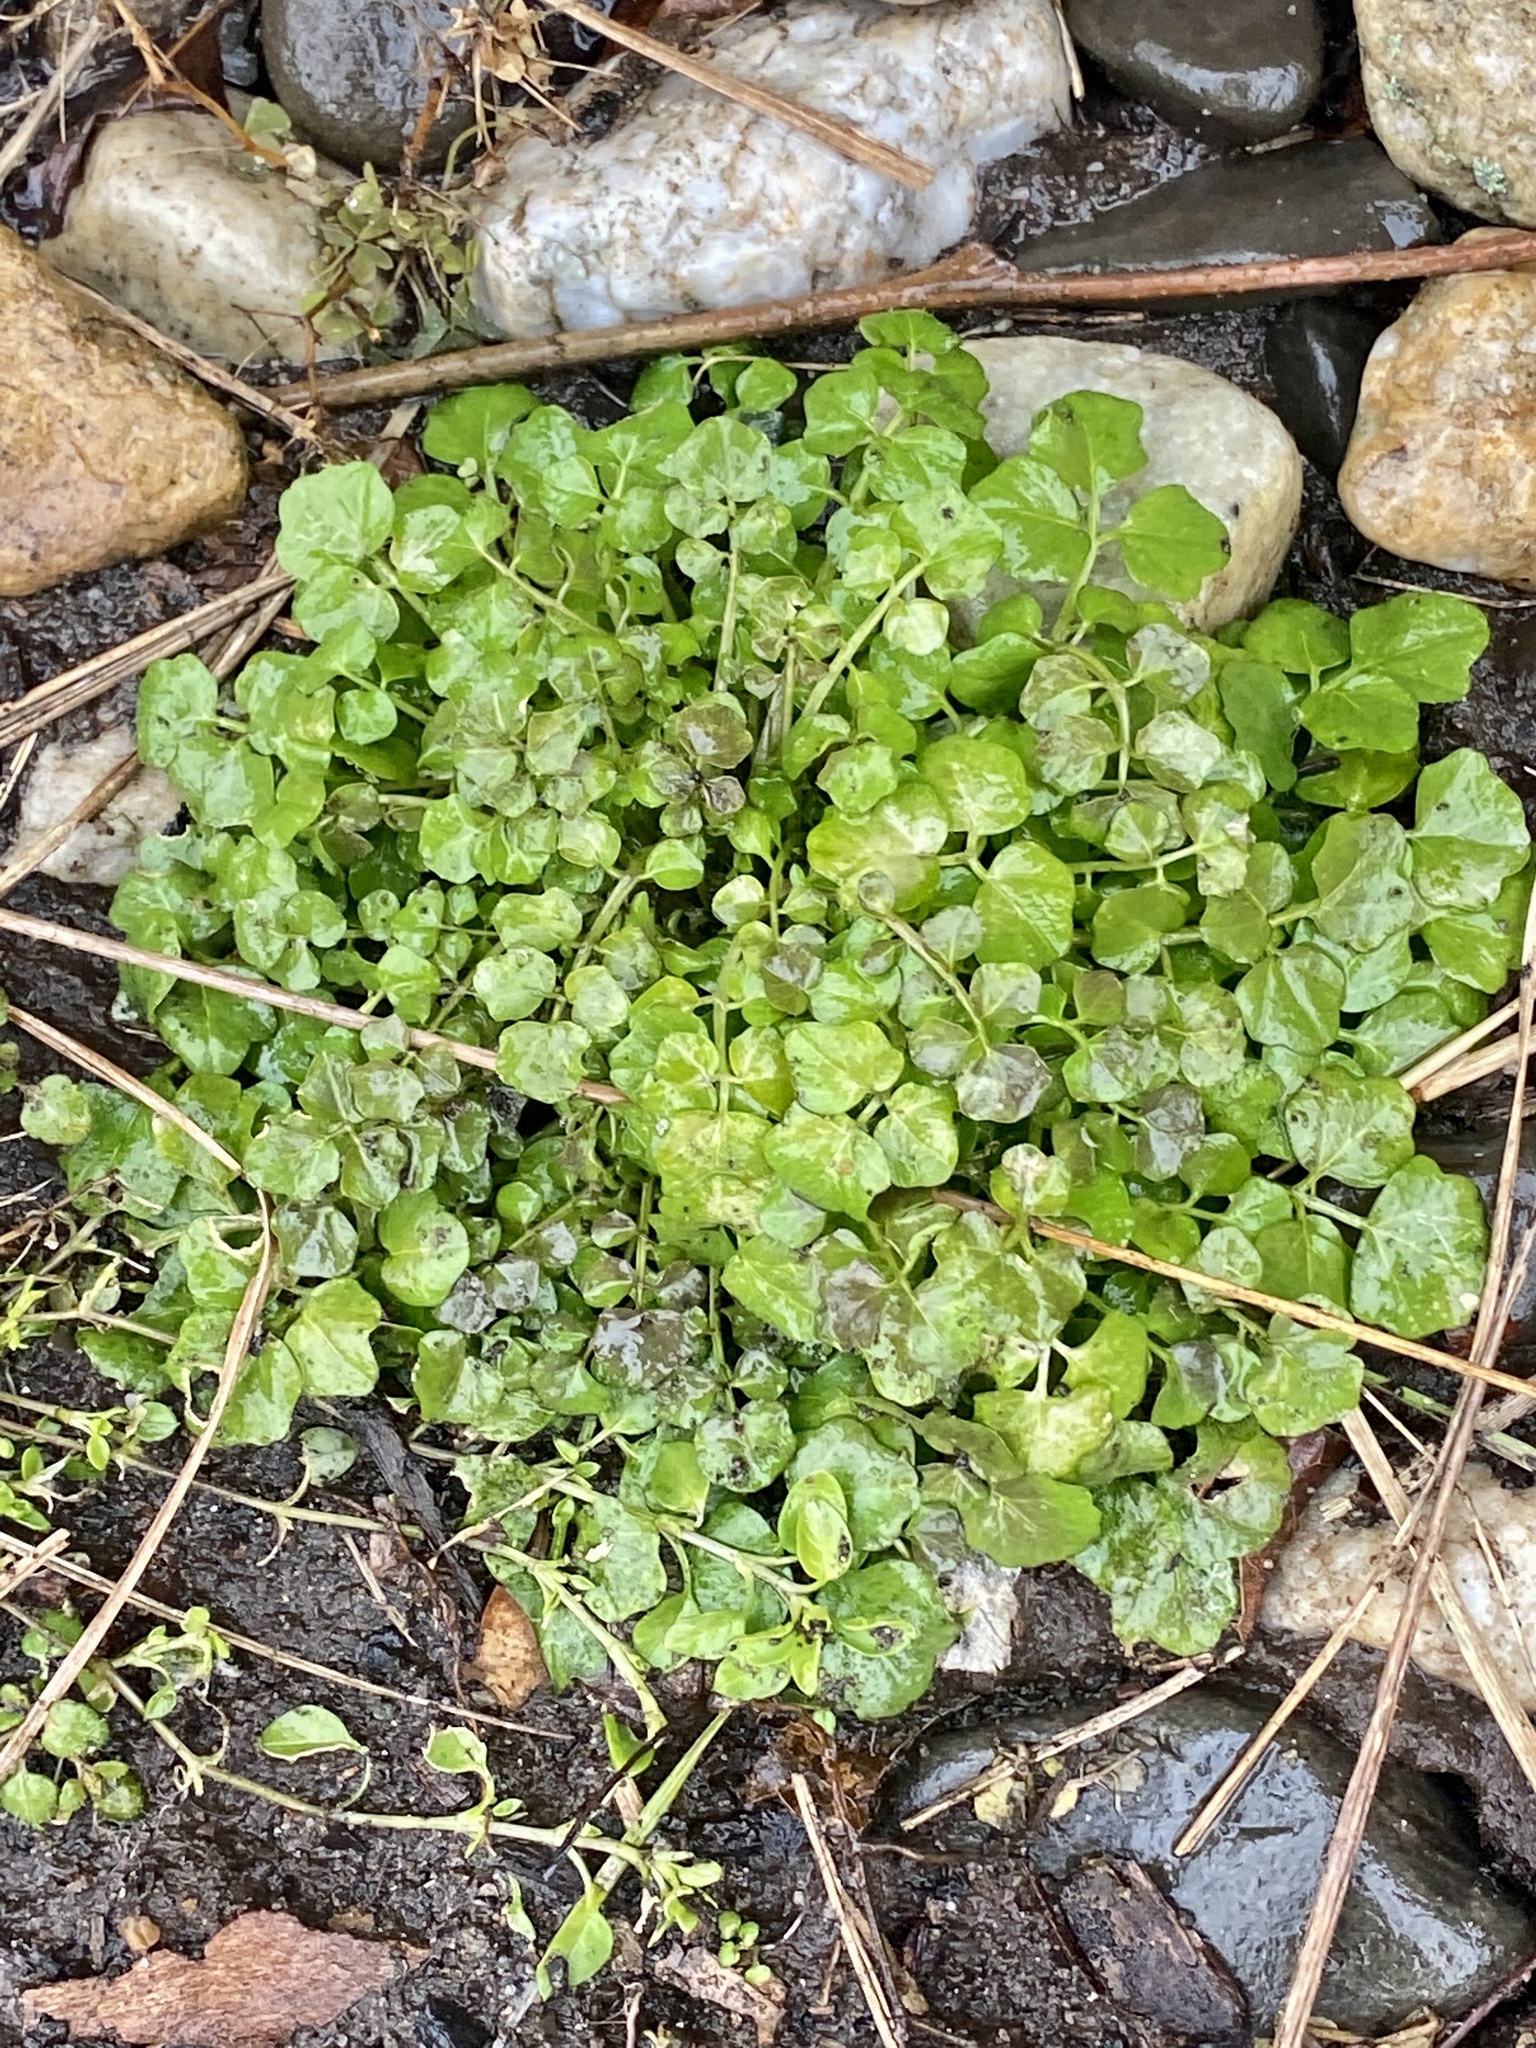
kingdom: Plantae
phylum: Tracheophyta
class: Magnoliopsida
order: Brassicales
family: Brassicaceae
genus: Cardamine
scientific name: Cardamine hirsuta
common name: Hairy bittercress
